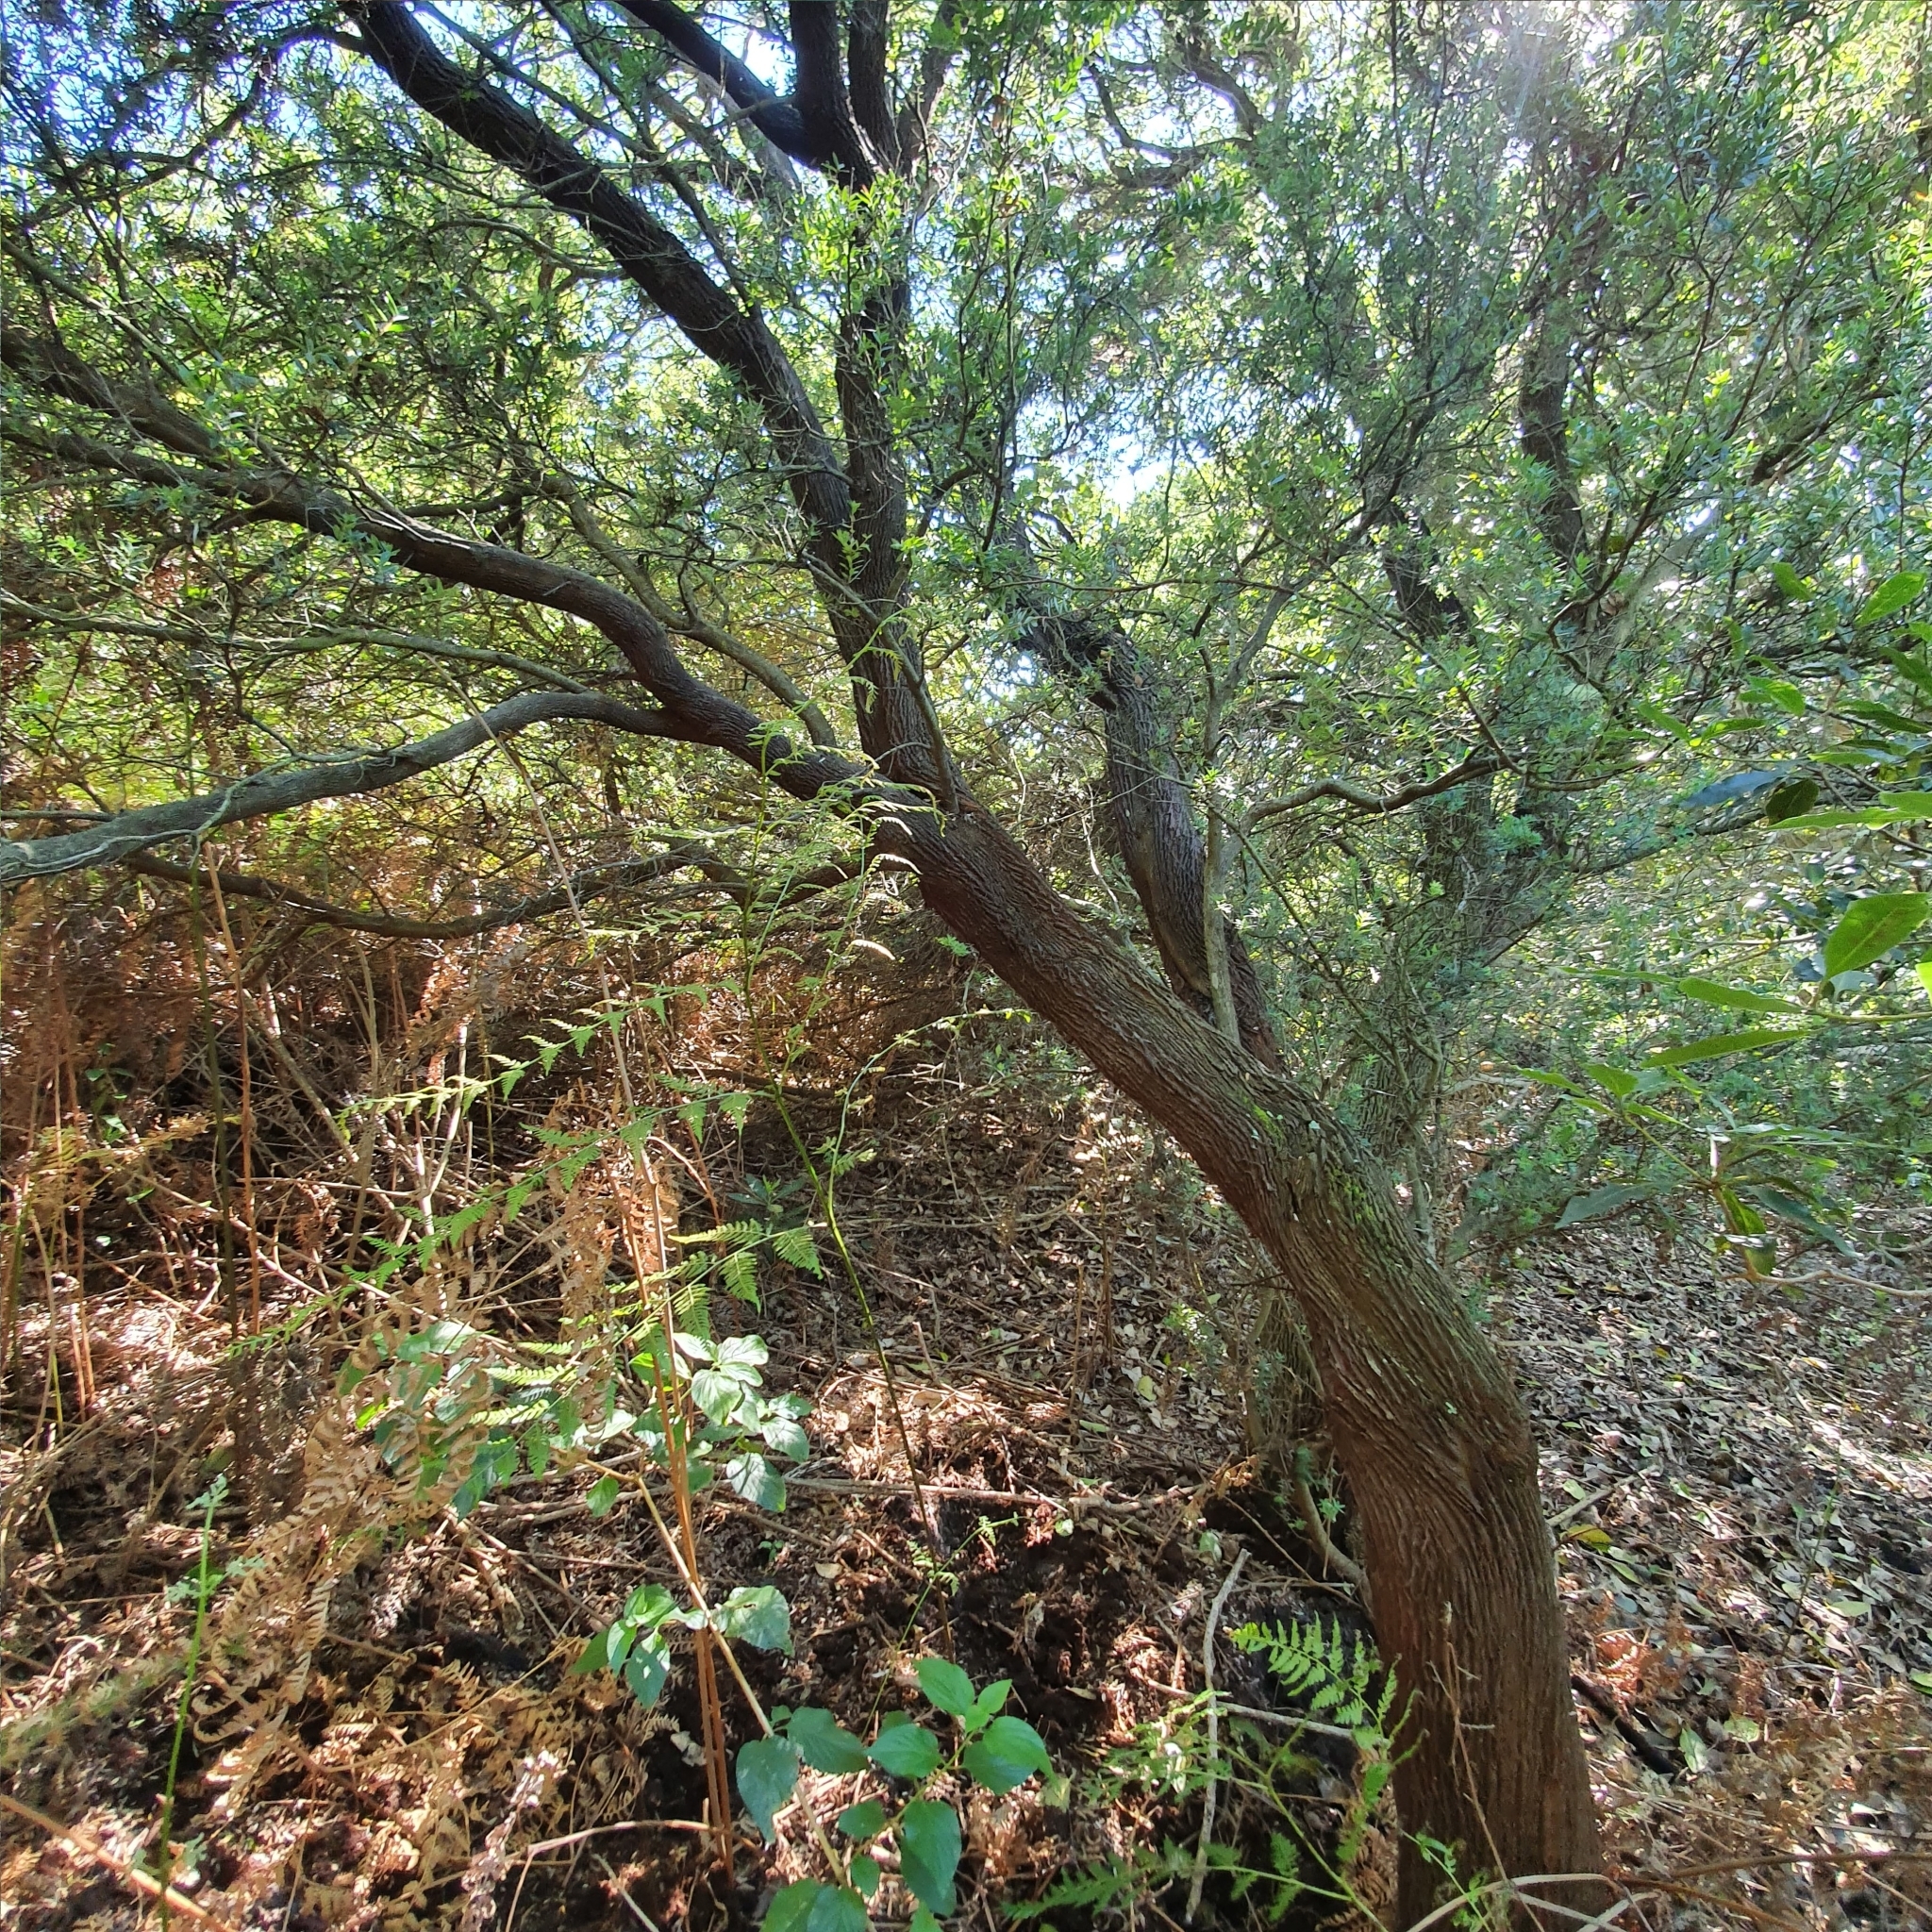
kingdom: Plantae
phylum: Tracheophyta
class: Magnoliopsida
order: Ericales
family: Ericaceae
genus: Monotoca
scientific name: Monotoca elliptica
